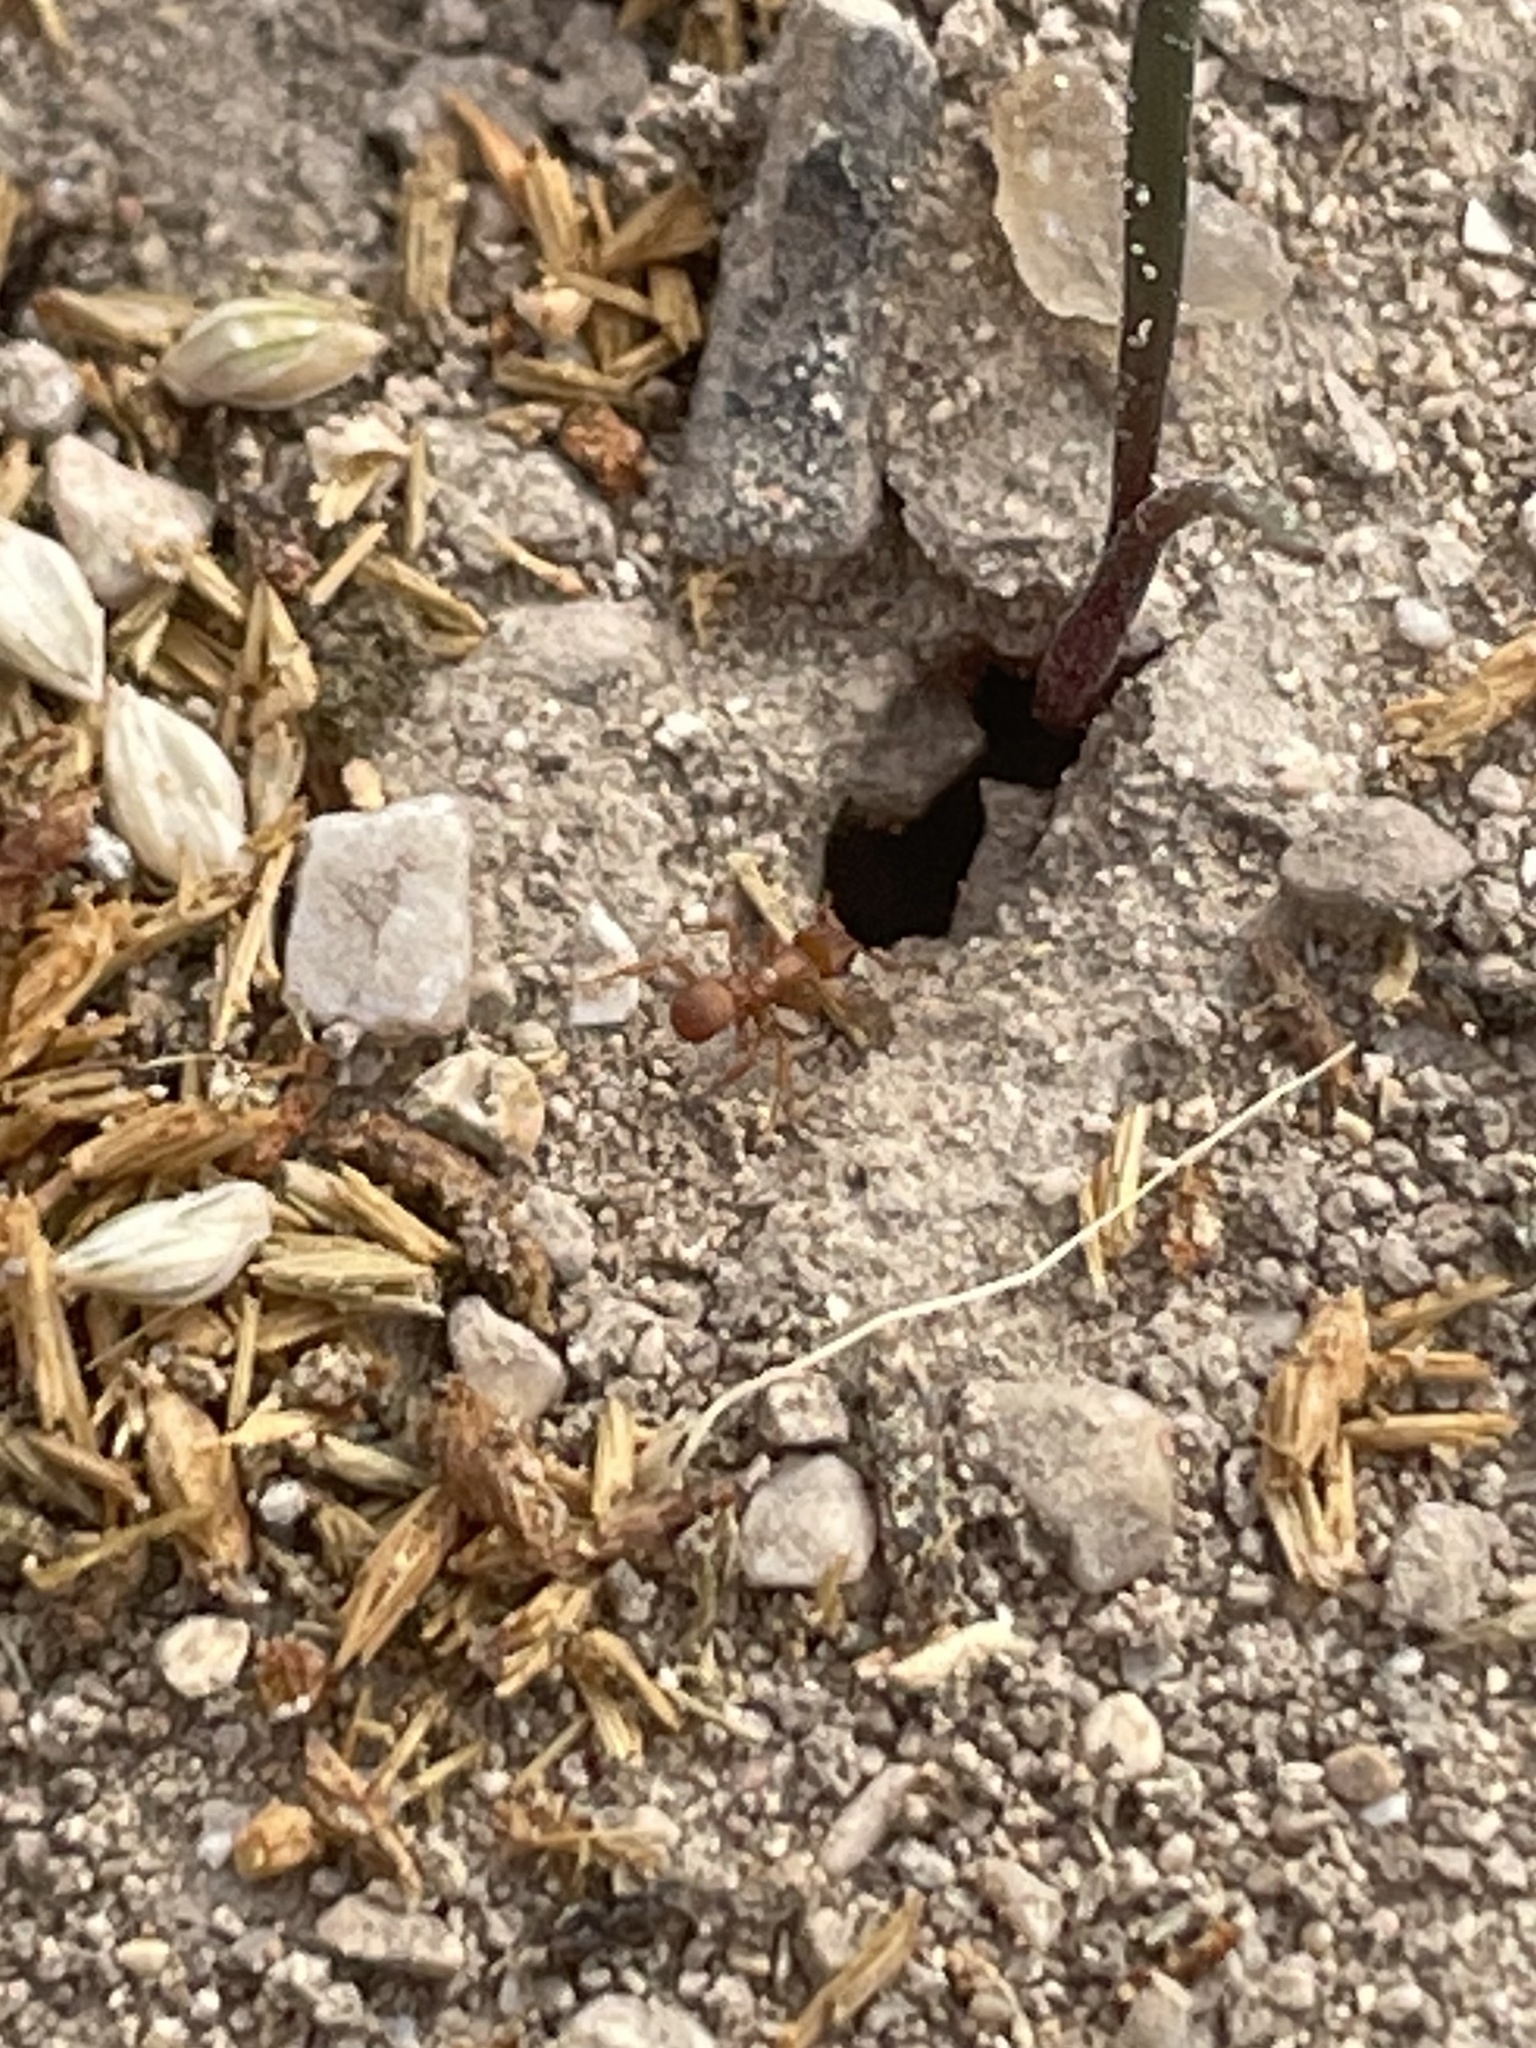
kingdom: Animalia
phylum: Arthropoda
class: Insecta
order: Hymenoptera
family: Formicidae
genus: Cyphomyrmex
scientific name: Cyphomyrmex wheeleri
